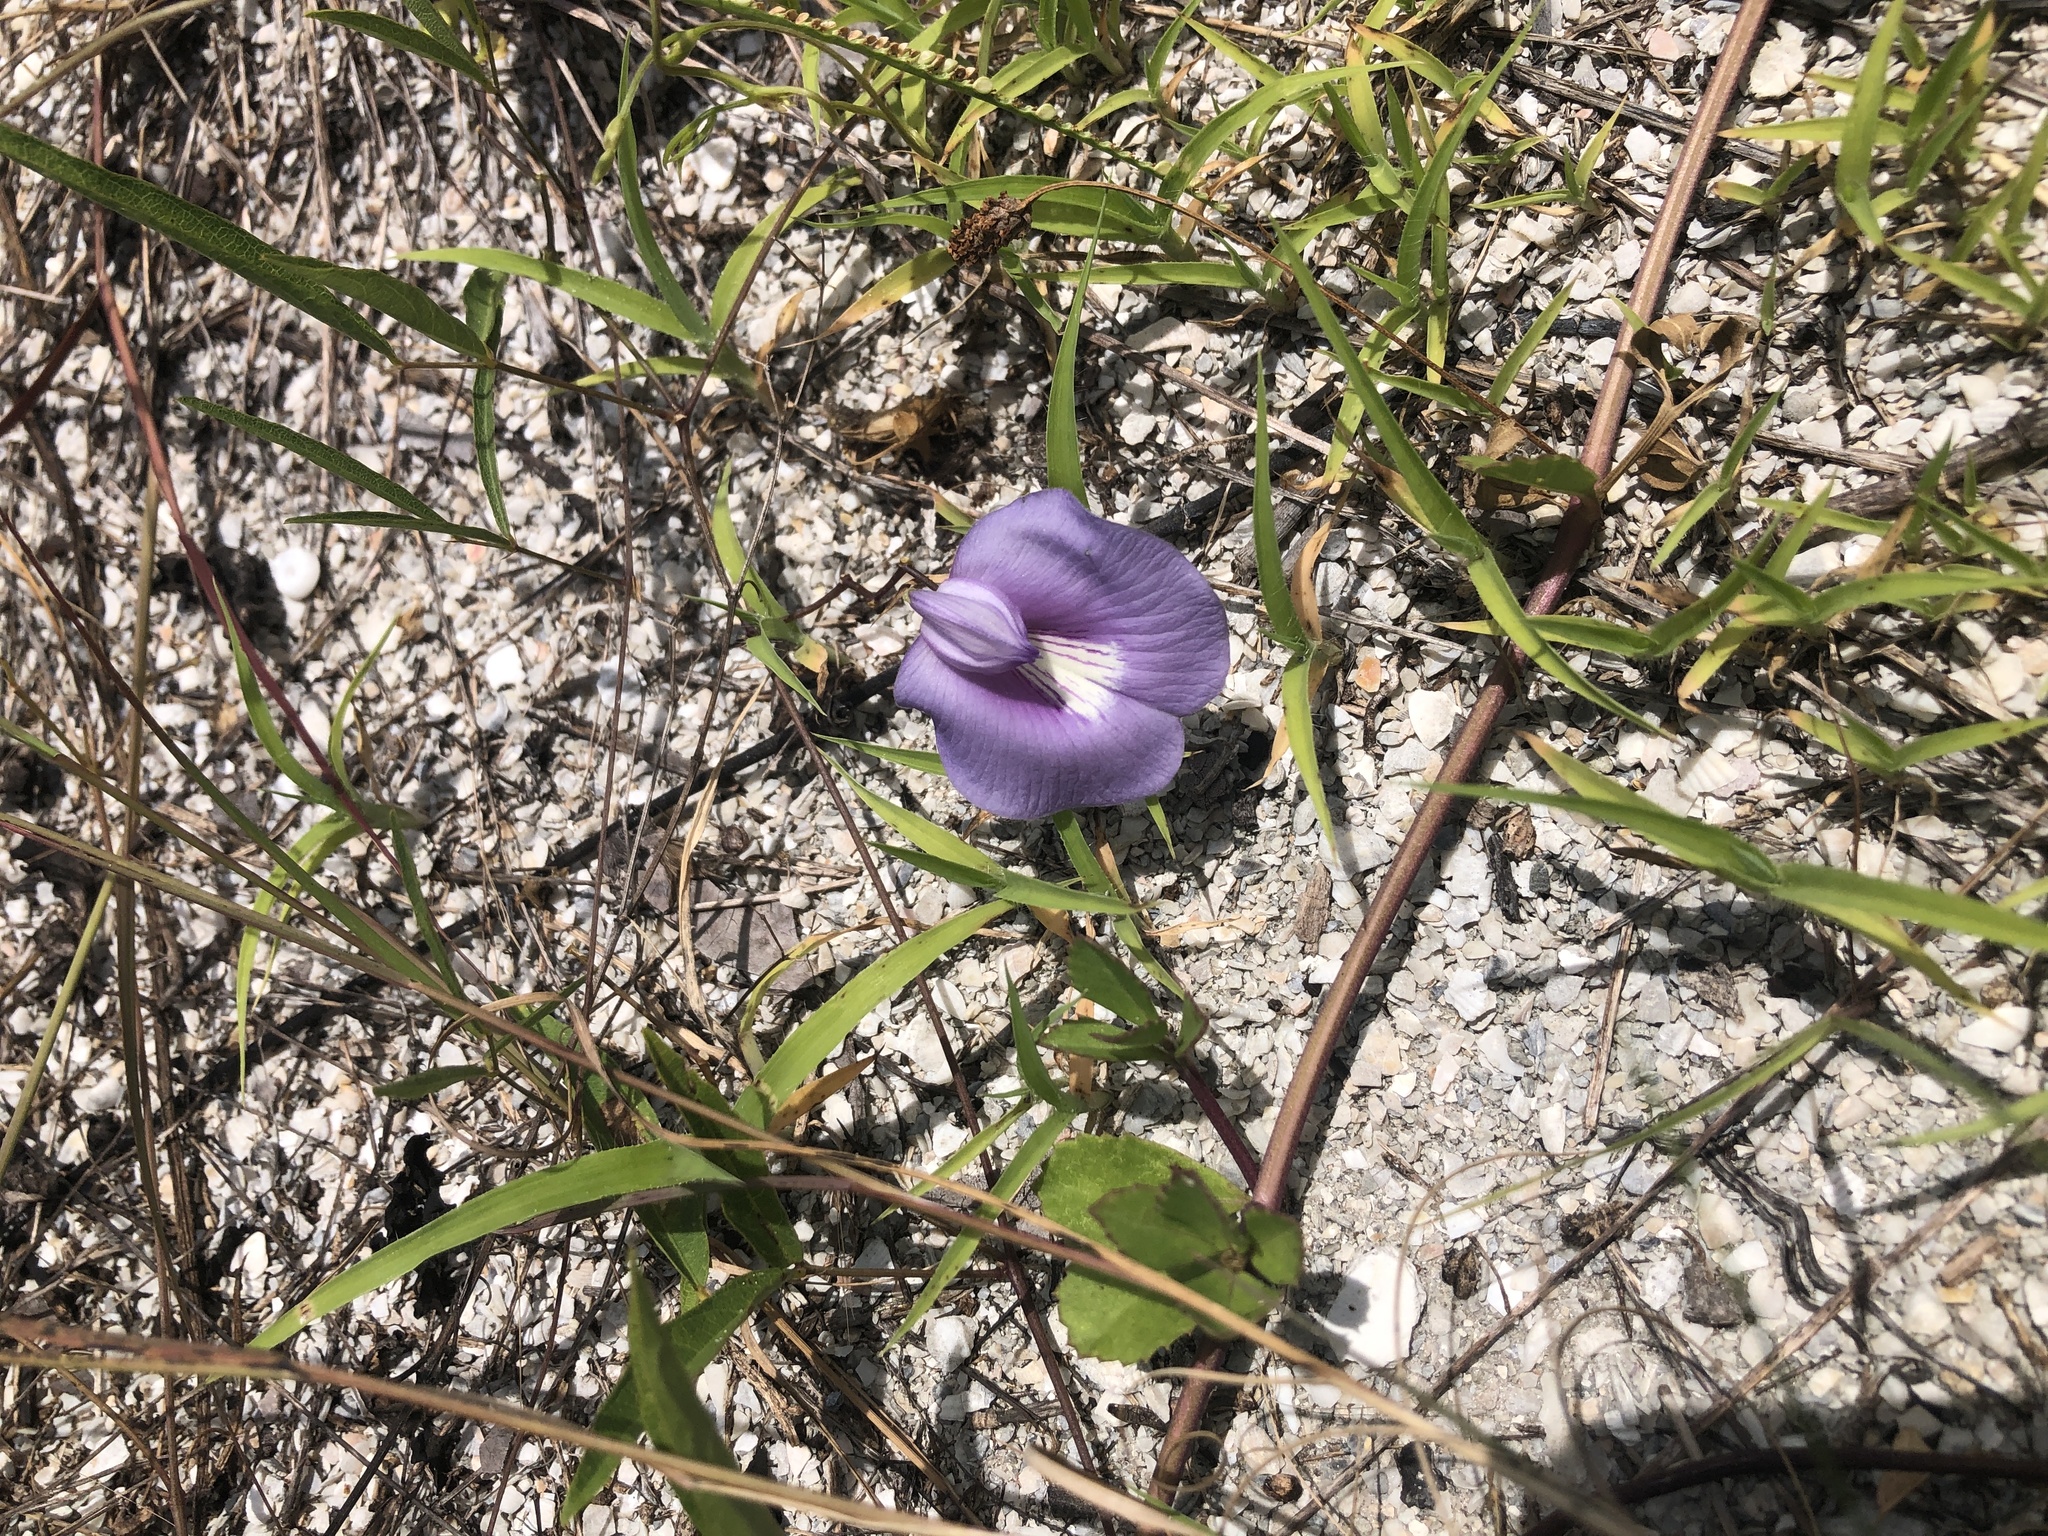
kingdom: Plantae
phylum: Tracheophyta
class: Magnoliopsida
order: Fabales
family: Fabaceae
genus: Centrosema
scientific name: Centrosema virginianum
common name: Butterfly-pea
